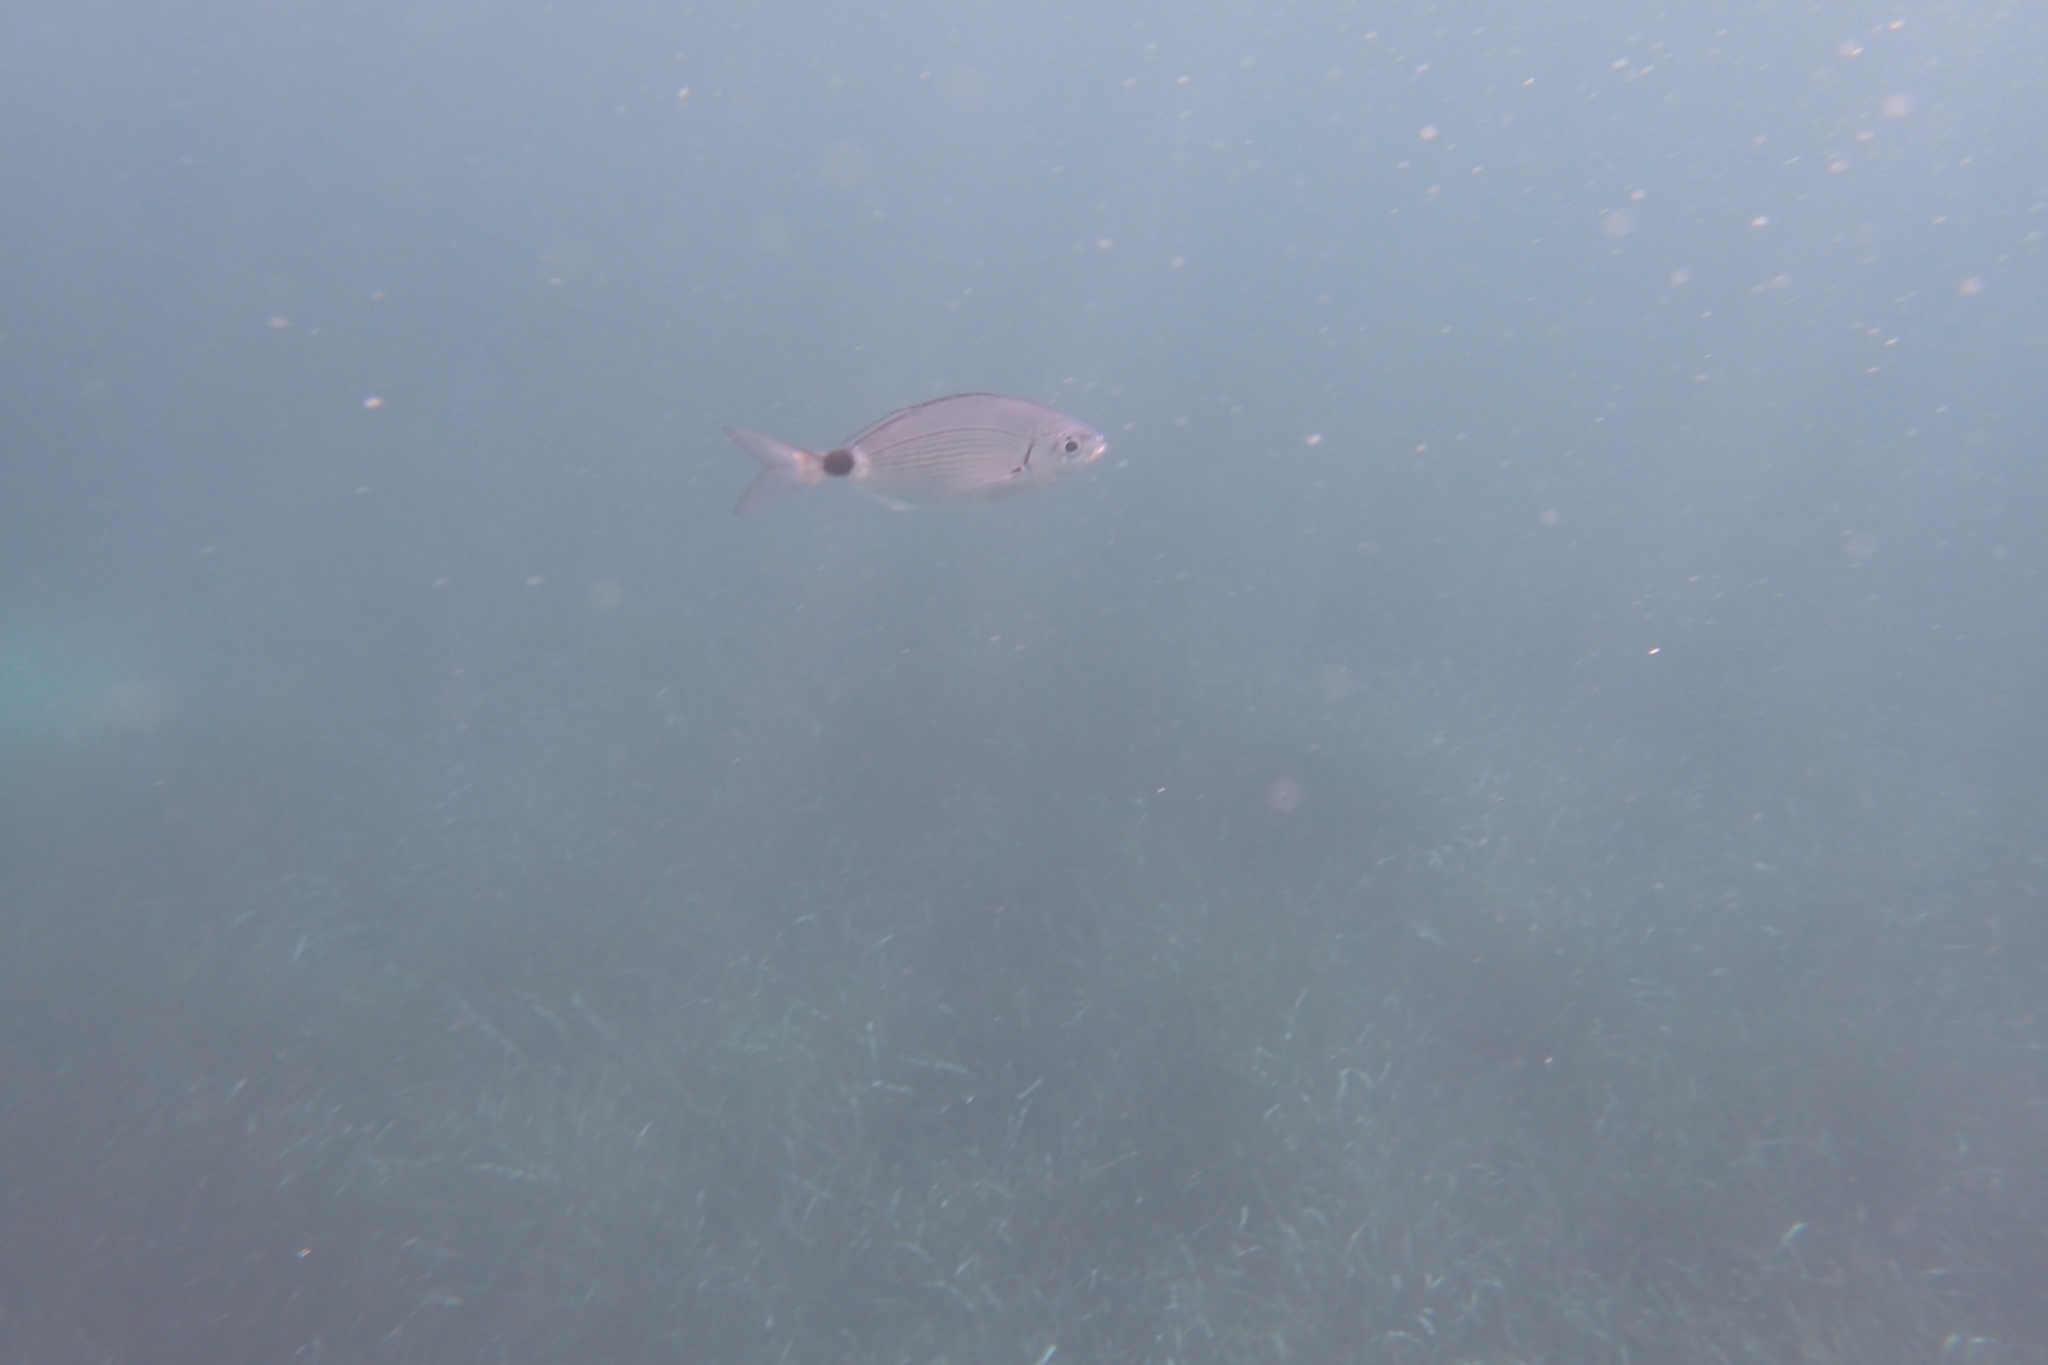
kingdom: Animalia
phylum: Chordata
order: Perciformes
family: Sparidae
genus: Oblada
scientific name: Oblada melanura
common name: Saddled seabream
